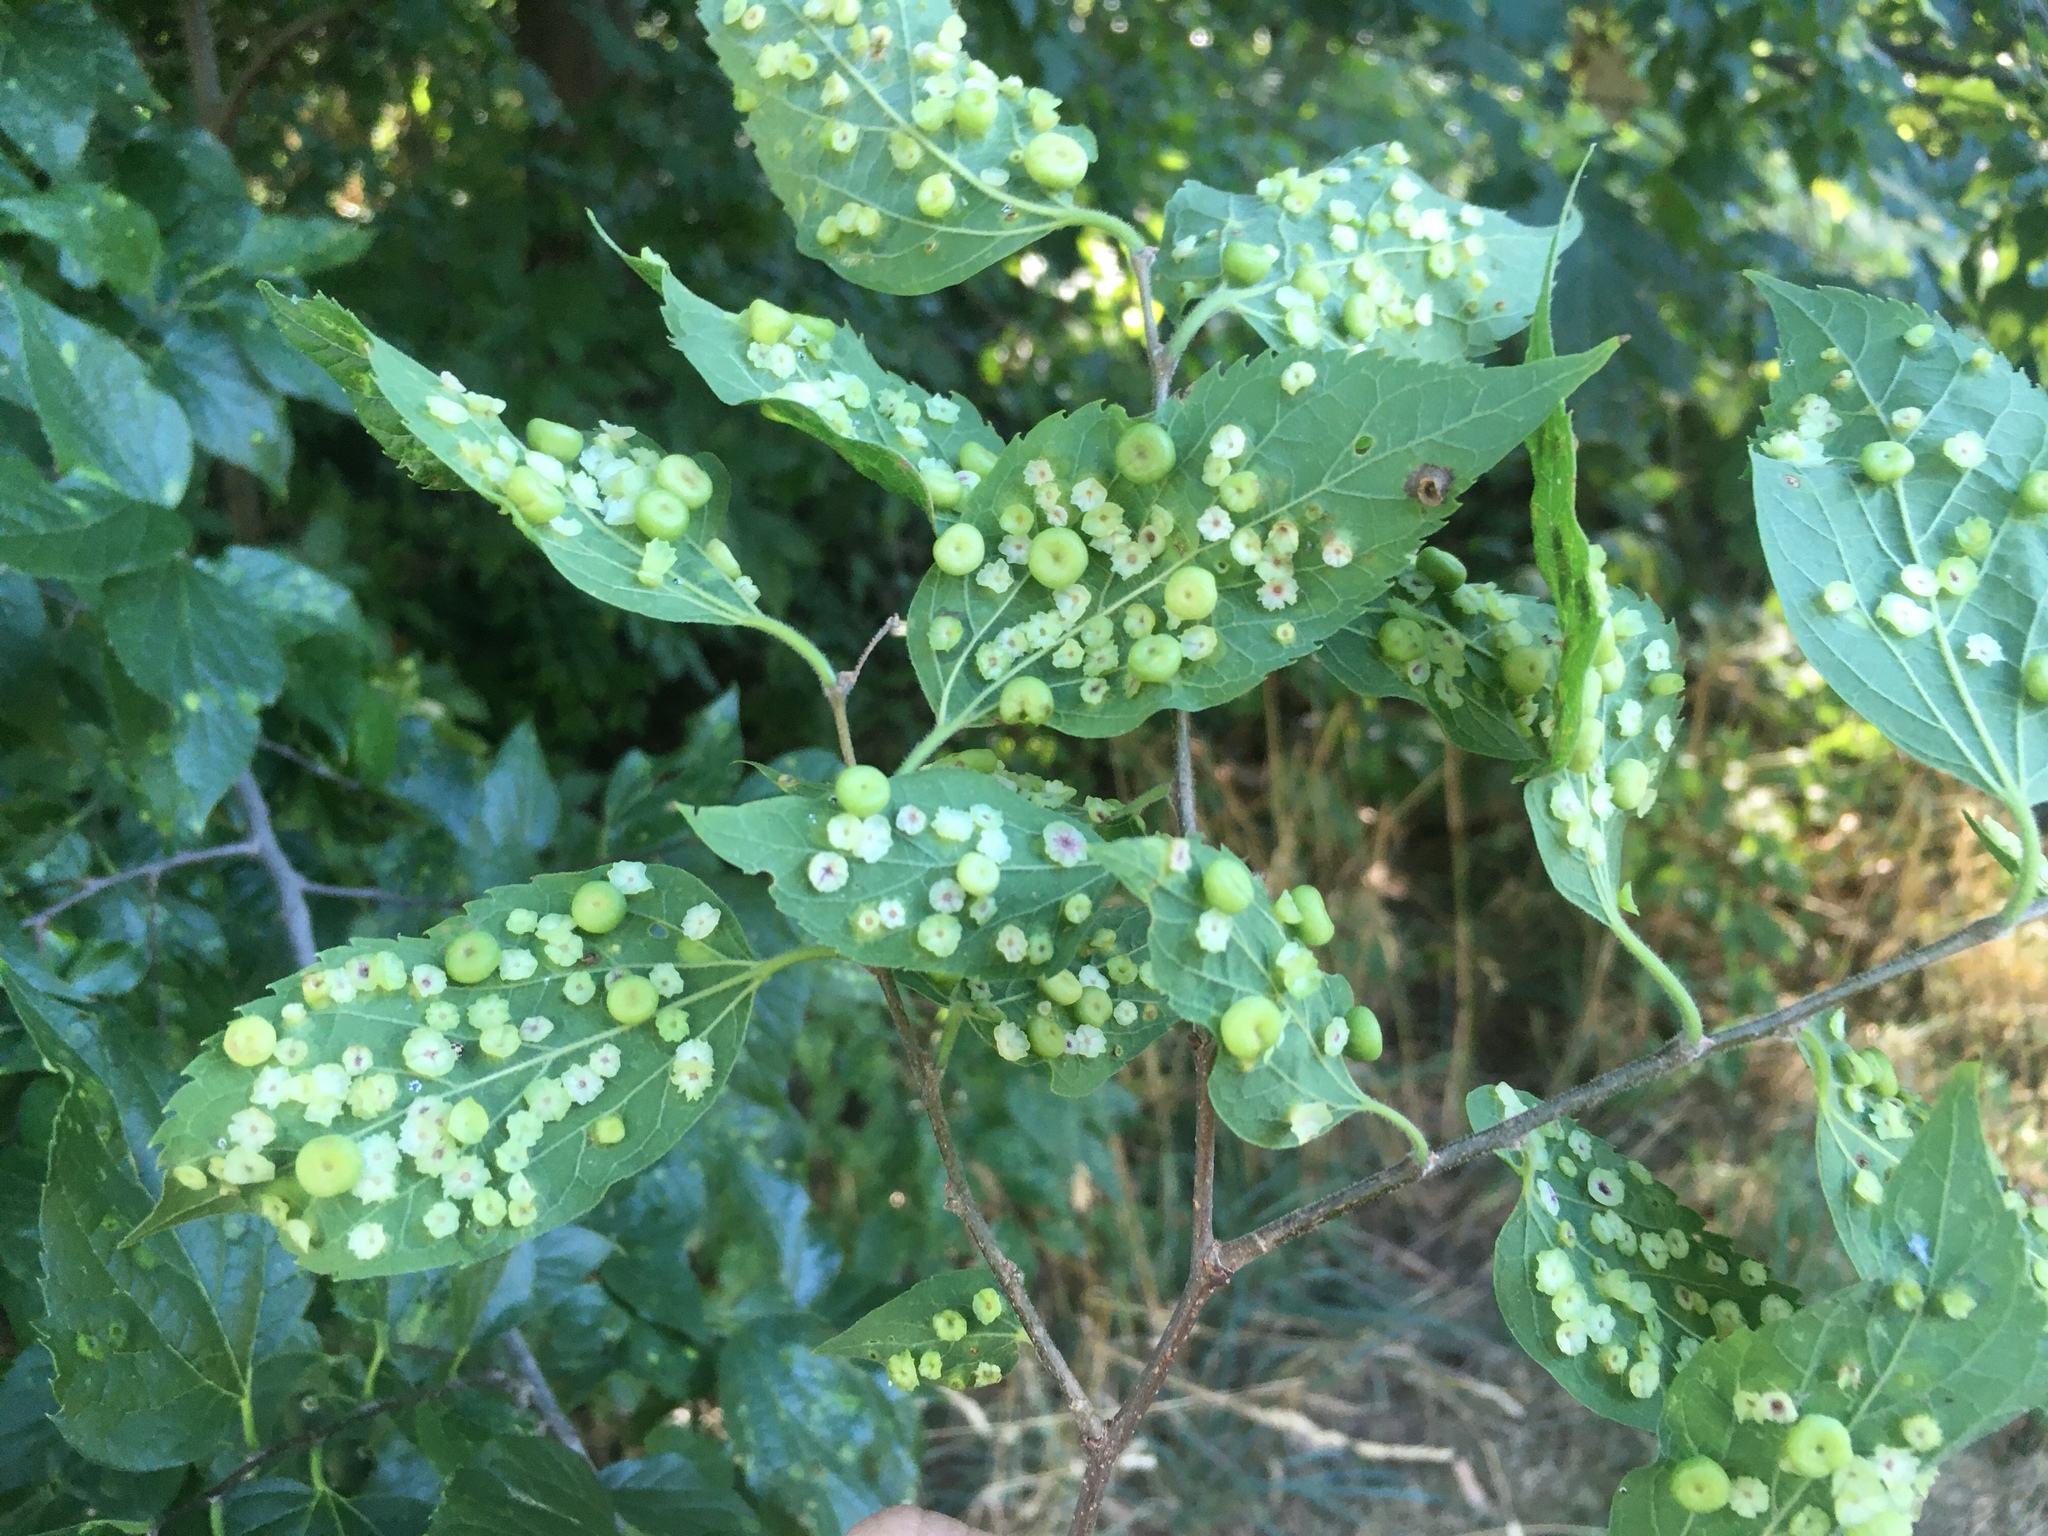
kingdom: Animalia
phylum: Arthropoda
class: Insecta
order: Hemiptera
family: Aphalaridae
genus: Pachypsylla
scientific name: Pachypsylla celtidismamma
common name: Hackberry nipplegall psyllid
